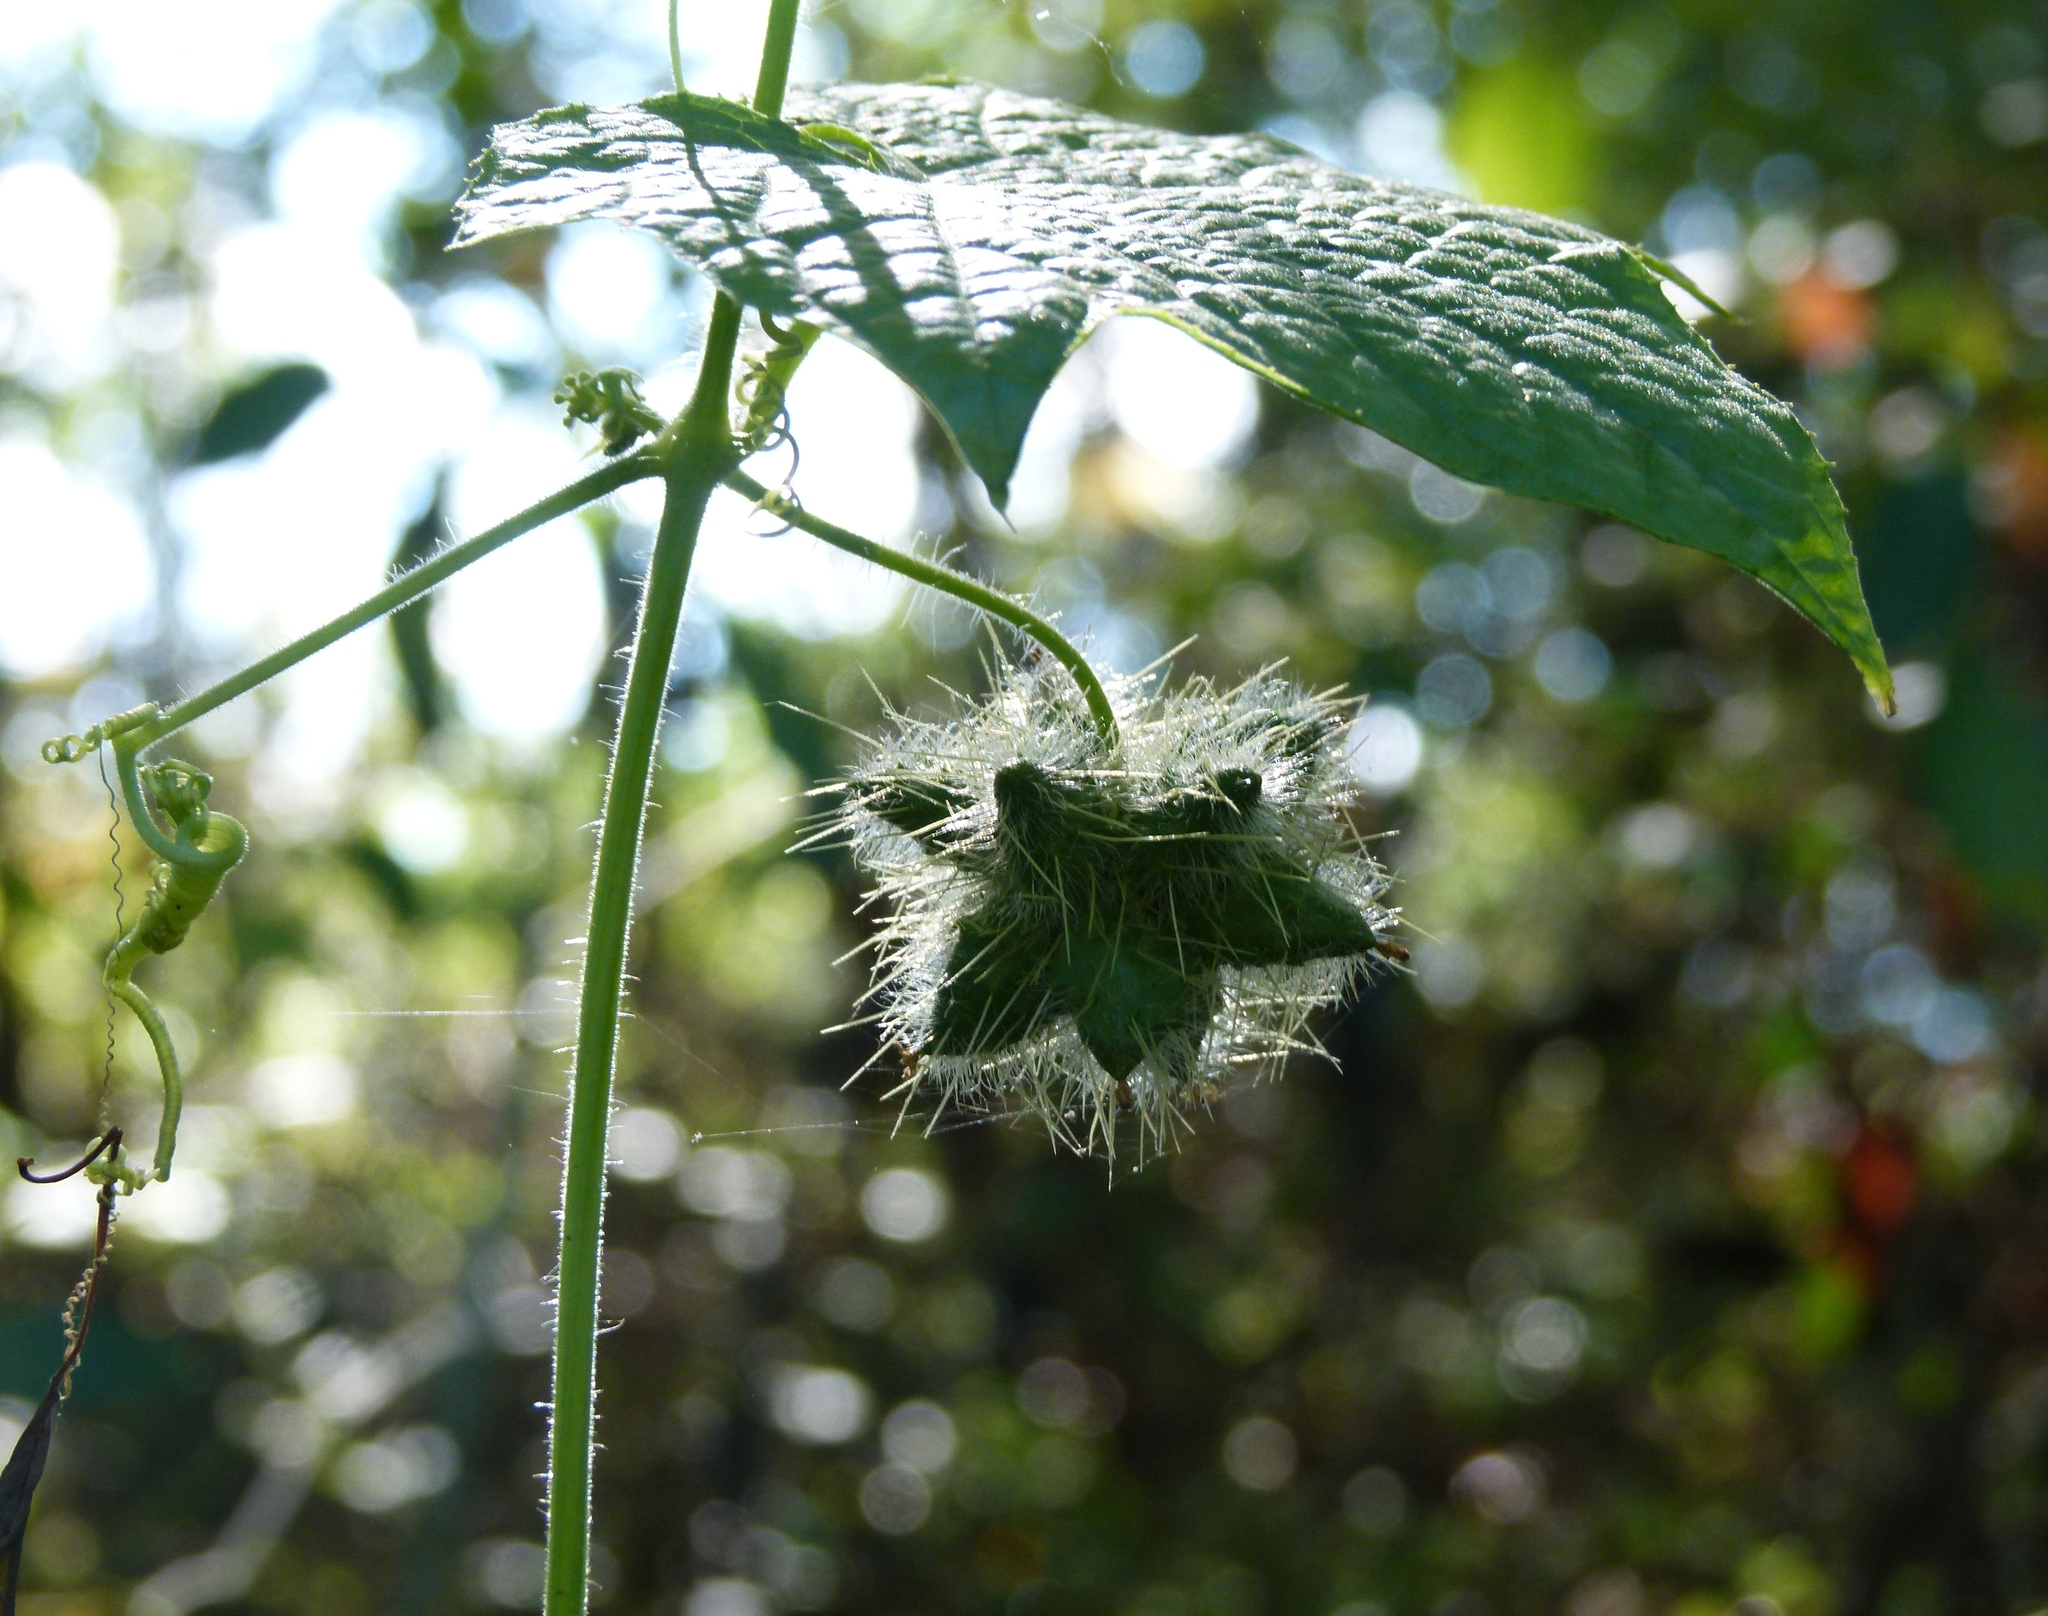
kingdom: Plantae
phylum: Tracheophyta
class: Magnoliopsida
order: Cucurbitales
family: Cucurbitaceae
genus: Sicyos
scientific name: Sicyos angulatus
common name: Angled burr cucumber
